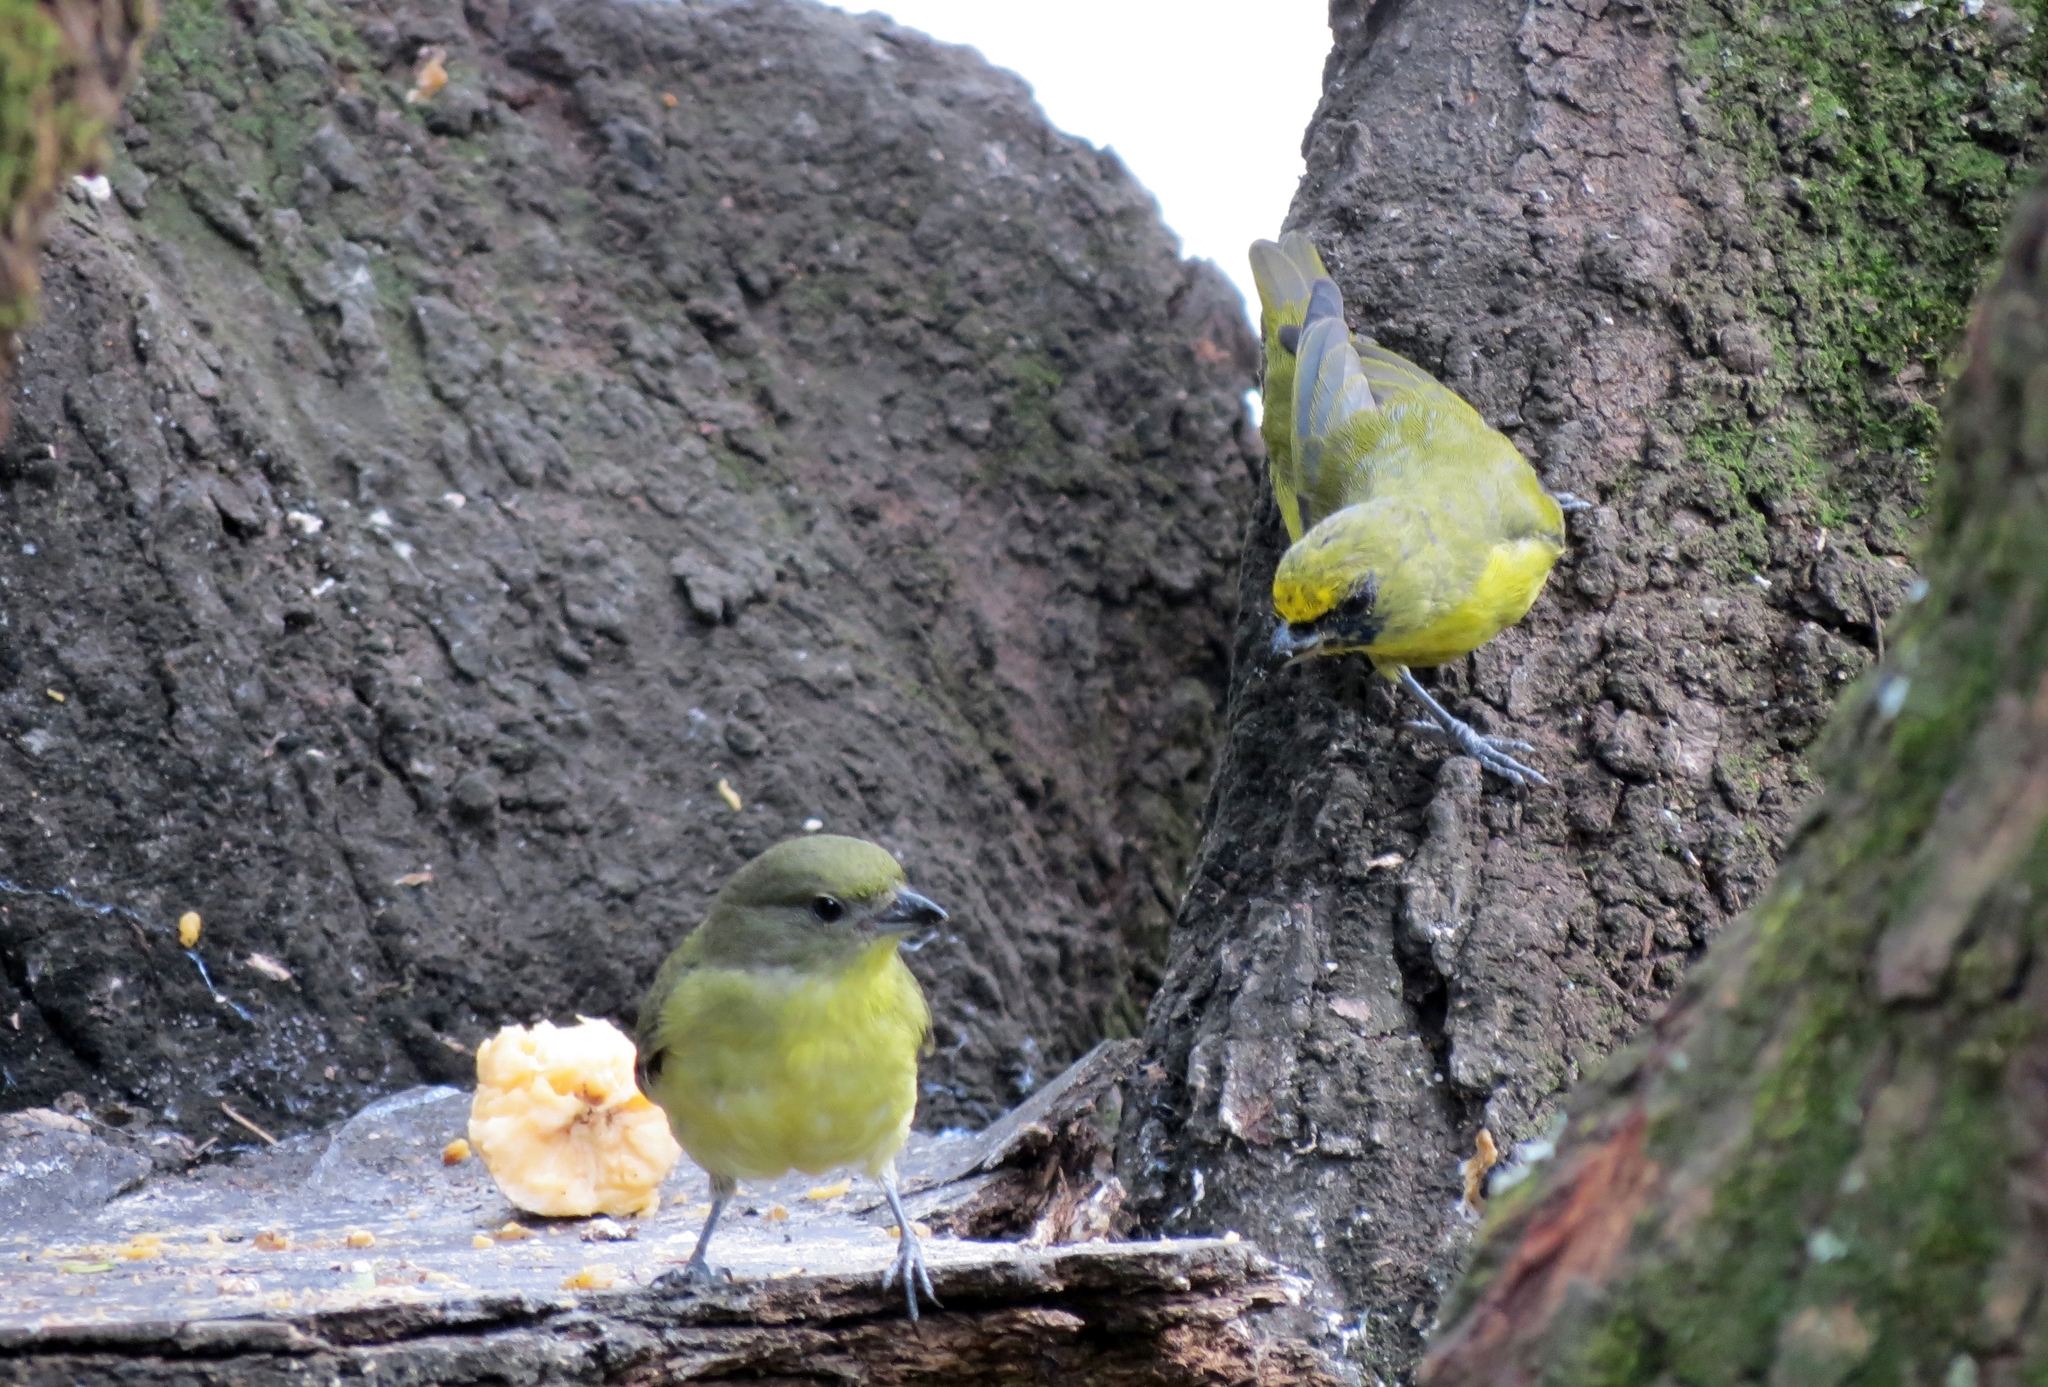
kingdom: Animalia
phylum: Chordata
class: Aves
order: Passeriformes
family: Fringillidae
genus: Euphonia
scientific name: Euphonia laniirostris
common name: Thick-billed euphonia
